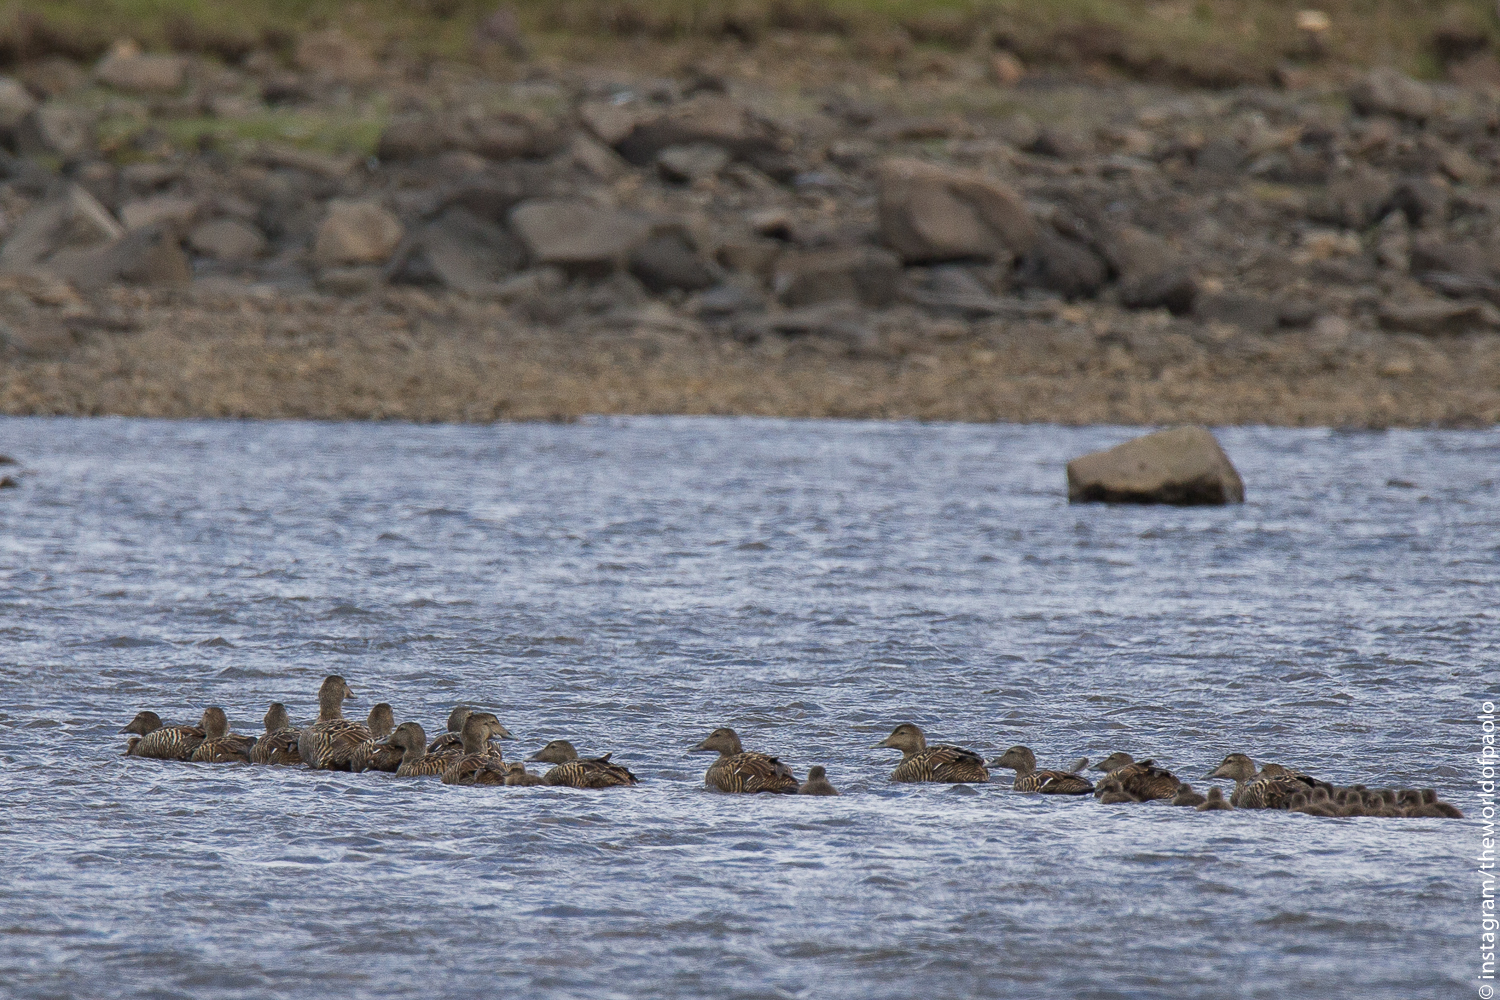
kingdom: Animalia
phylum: Chordata
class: Aves
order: Anseriformes
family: Anatidae
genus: Somateria
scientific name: Somateria mollissima
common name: Common eider
